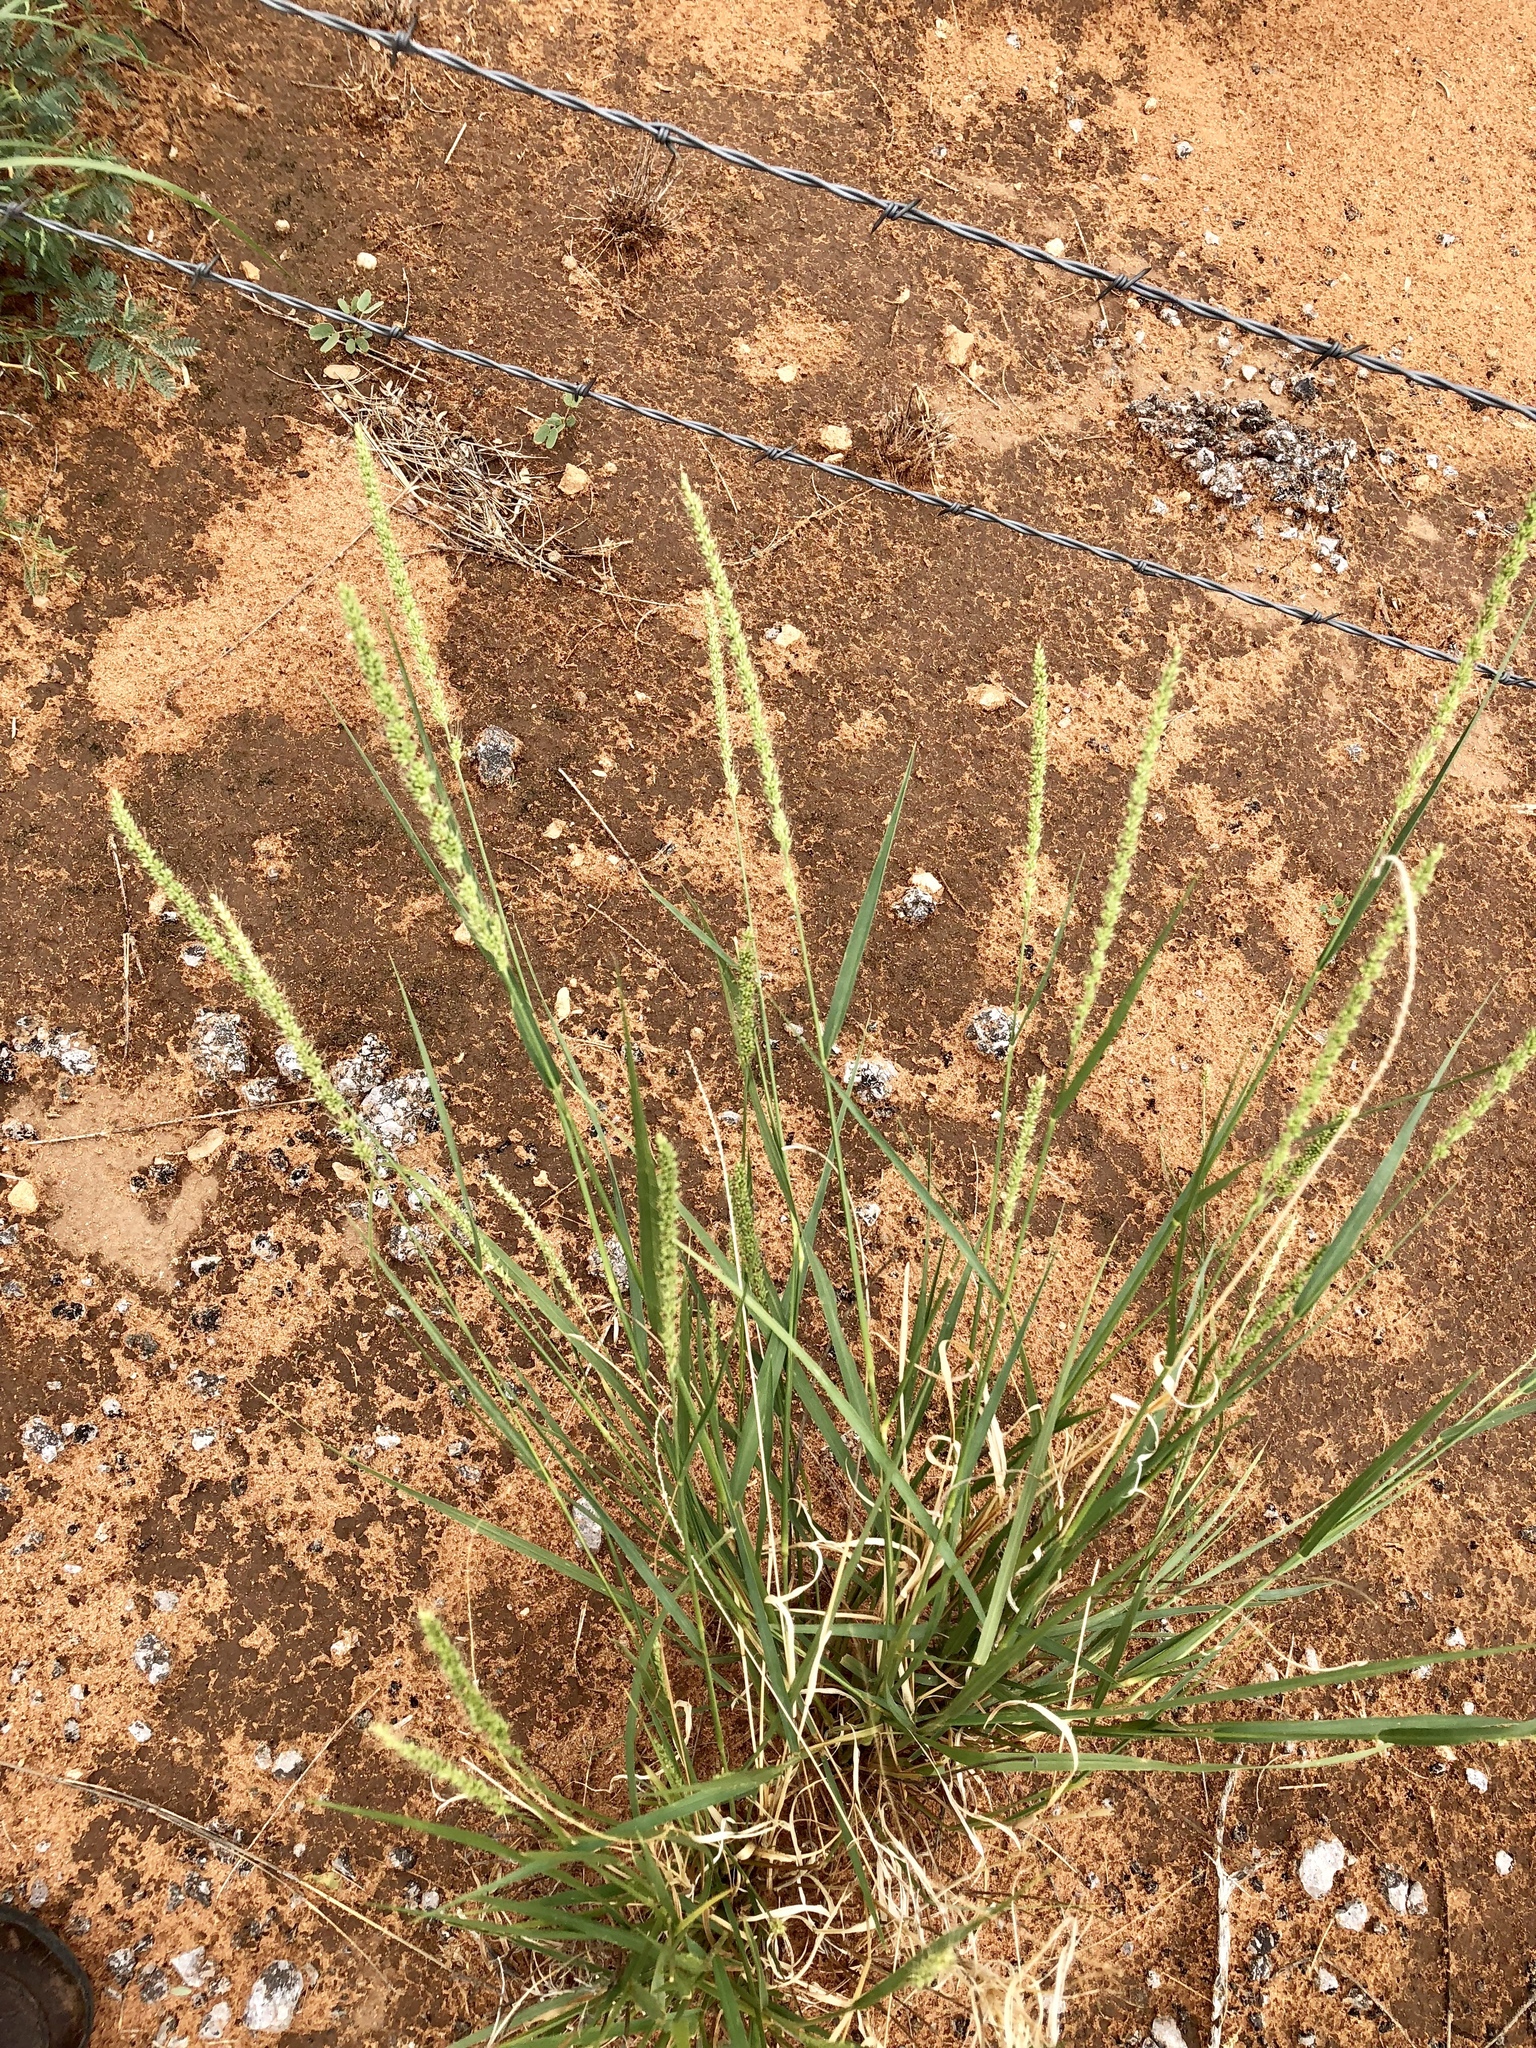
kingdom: Plantae
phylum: Tracheophyta
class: Liliopsida
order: Poales
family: Poaceae
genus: Setaria
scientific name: Setaria leucopila
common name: Plains bristle grass
